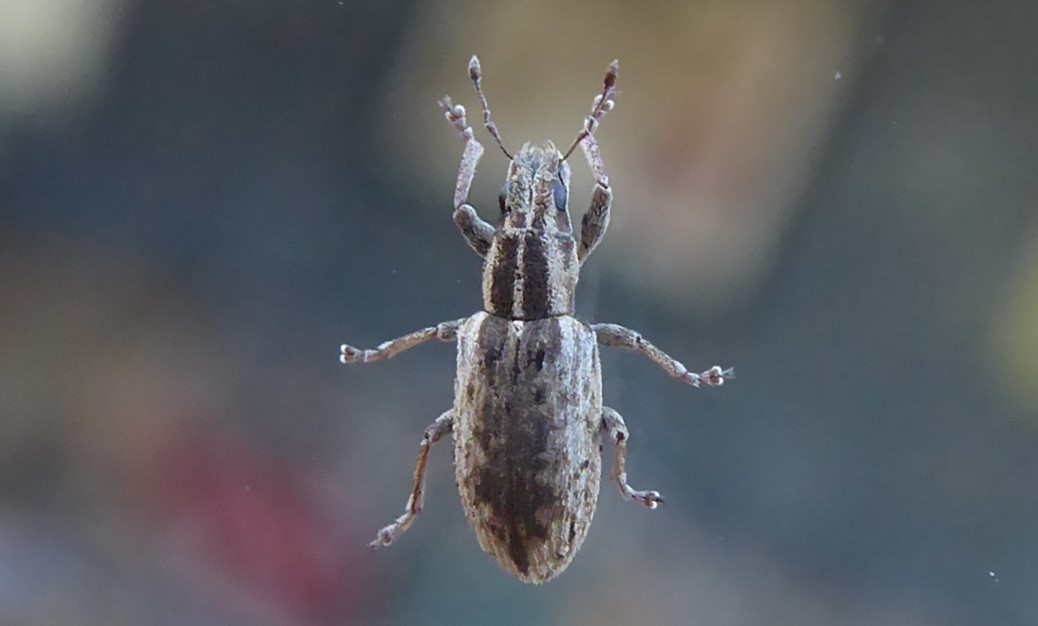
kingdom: Animalia
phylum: Arthropoda
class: Insecta
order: Coleoptera
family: Curculionidae
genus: Sitona
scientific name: Sitona discoideus
